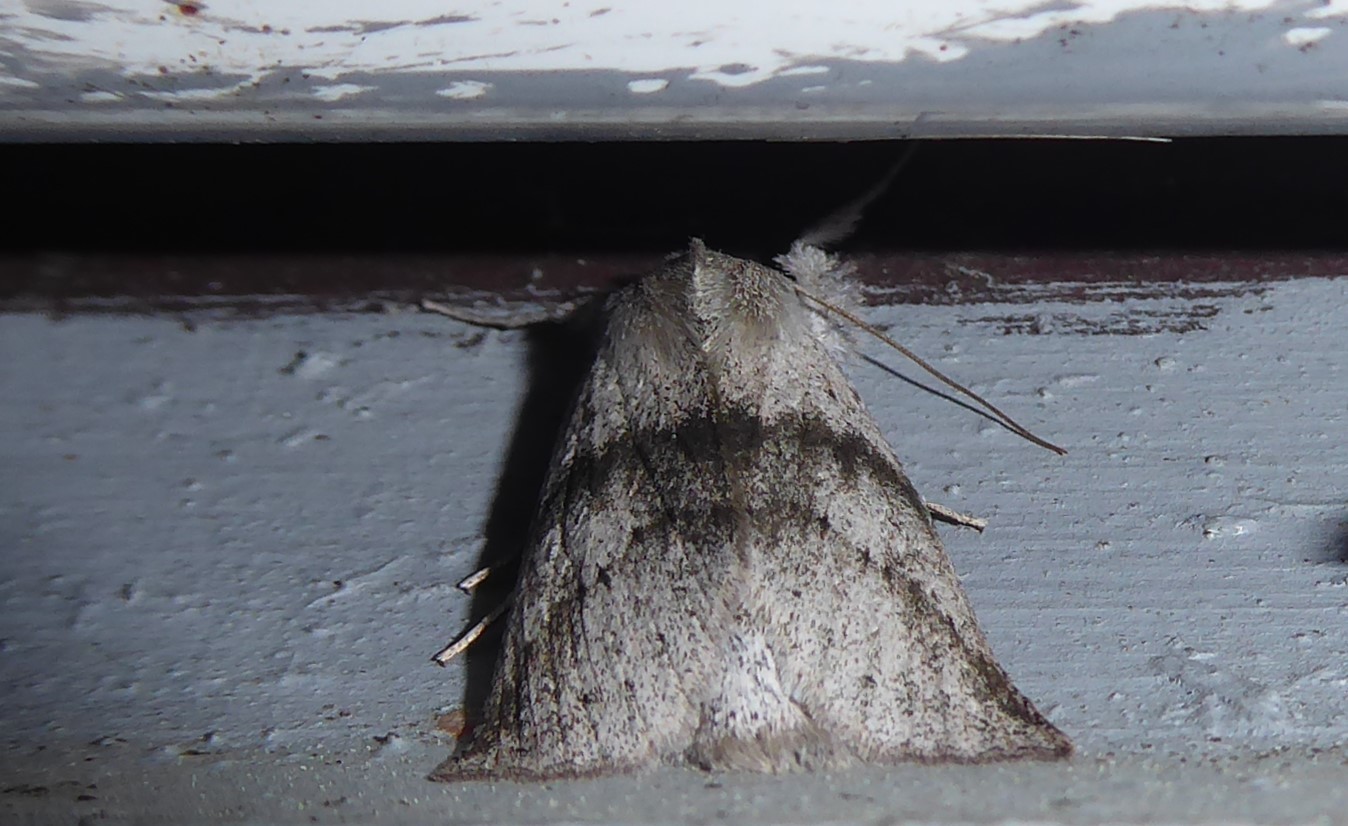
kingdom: Animalia
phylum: Arthropoda
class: Insecta
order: Lepidoptera
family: Geometridae
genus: Declana
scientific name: Declana leptomera
